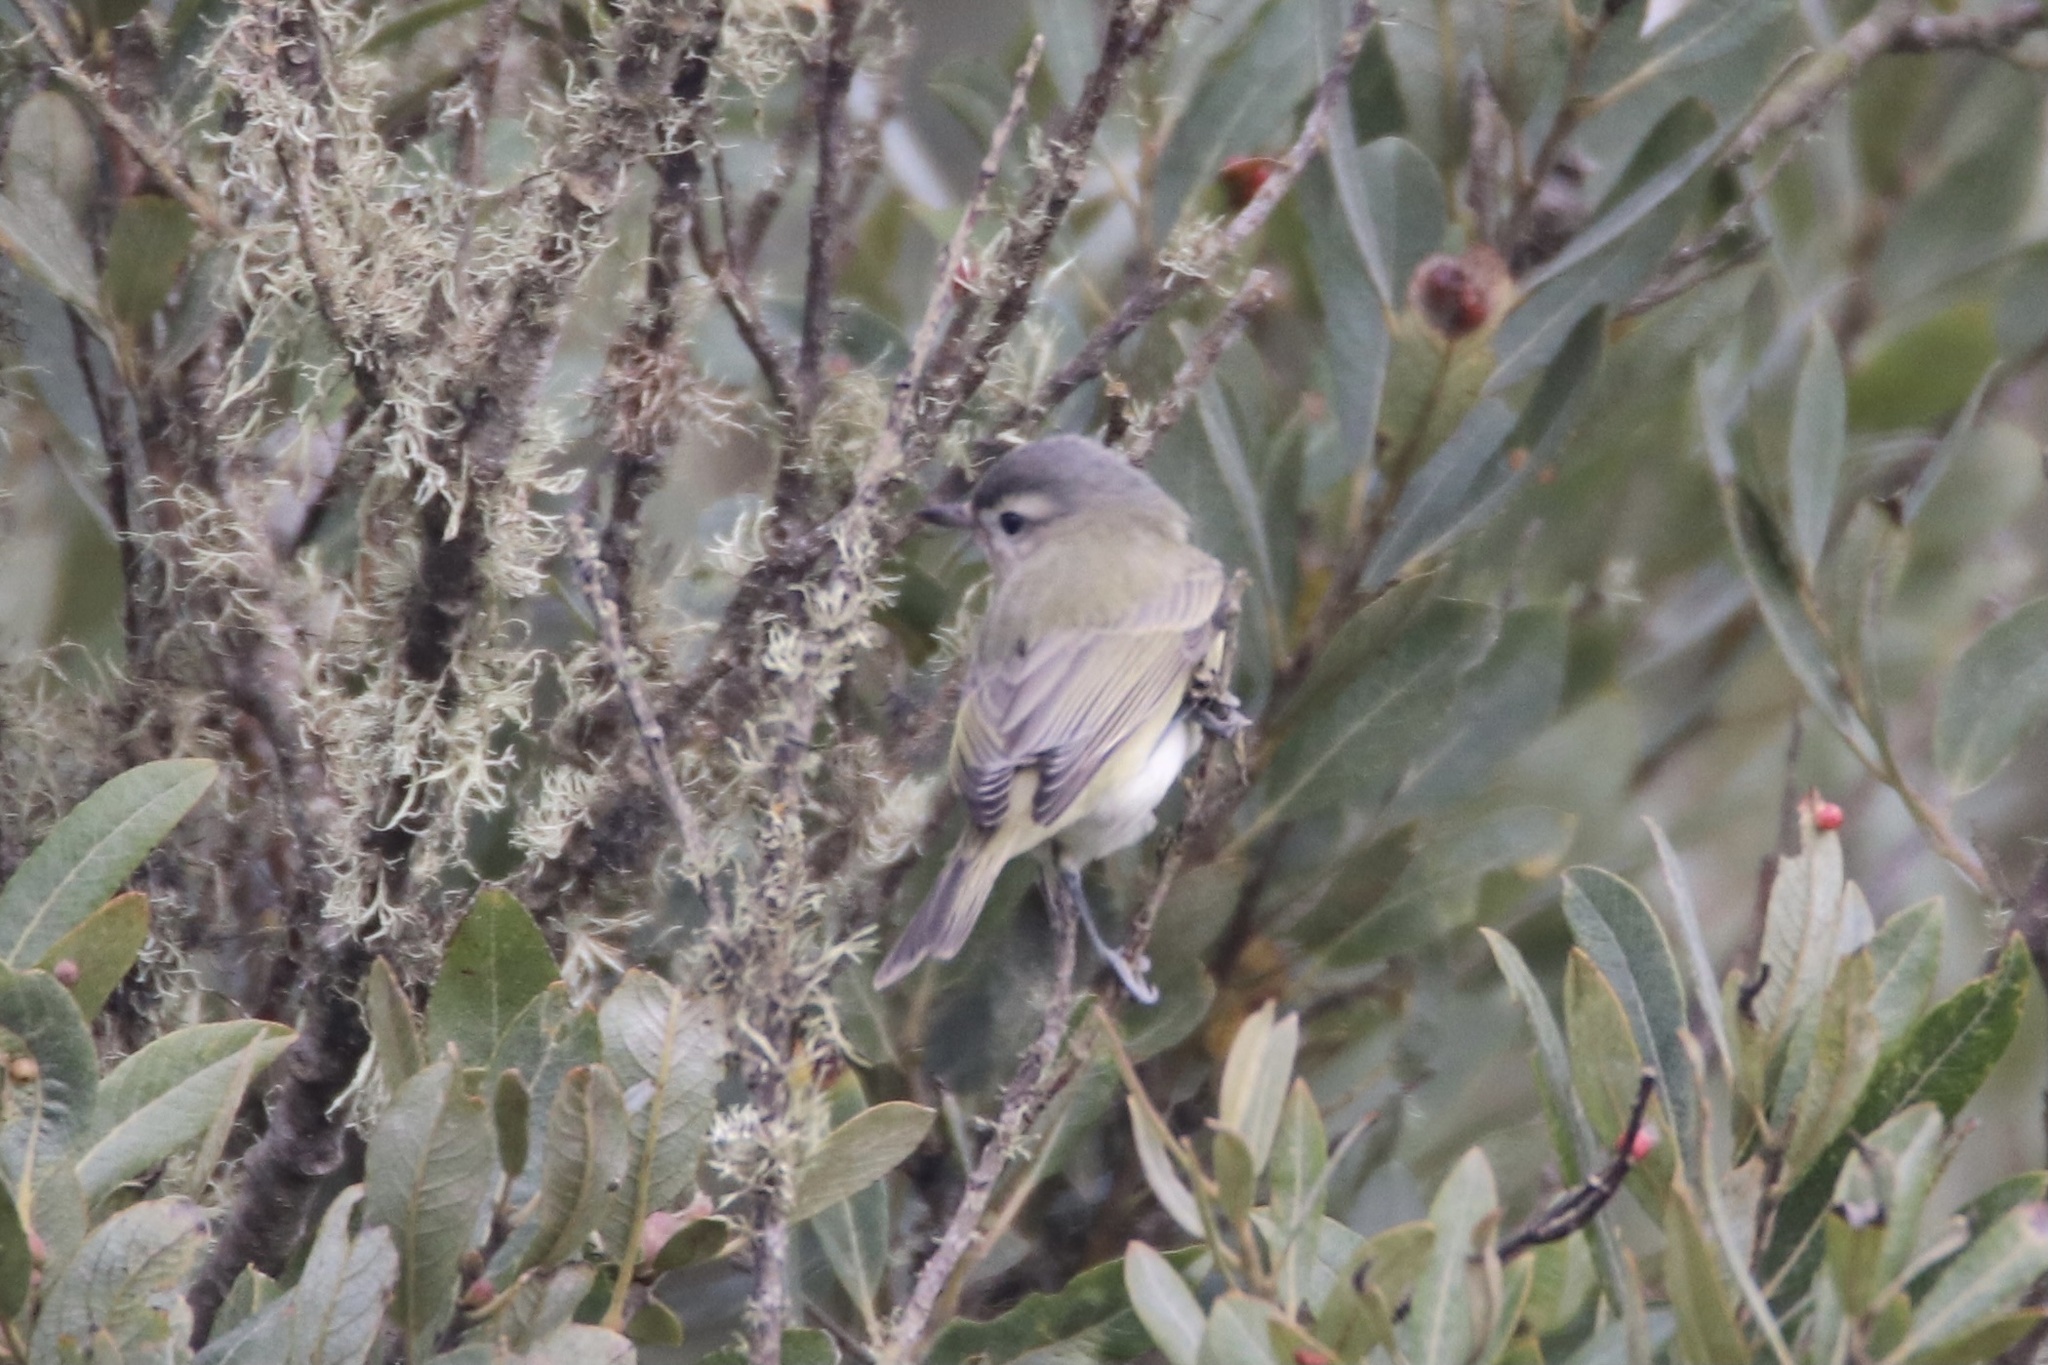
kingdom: Animalia
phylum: Chordata
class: Aves
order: Passeriformes
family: Vireonidae
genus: Vireo
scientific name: Vireo gilvus
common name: Warbling vireo
